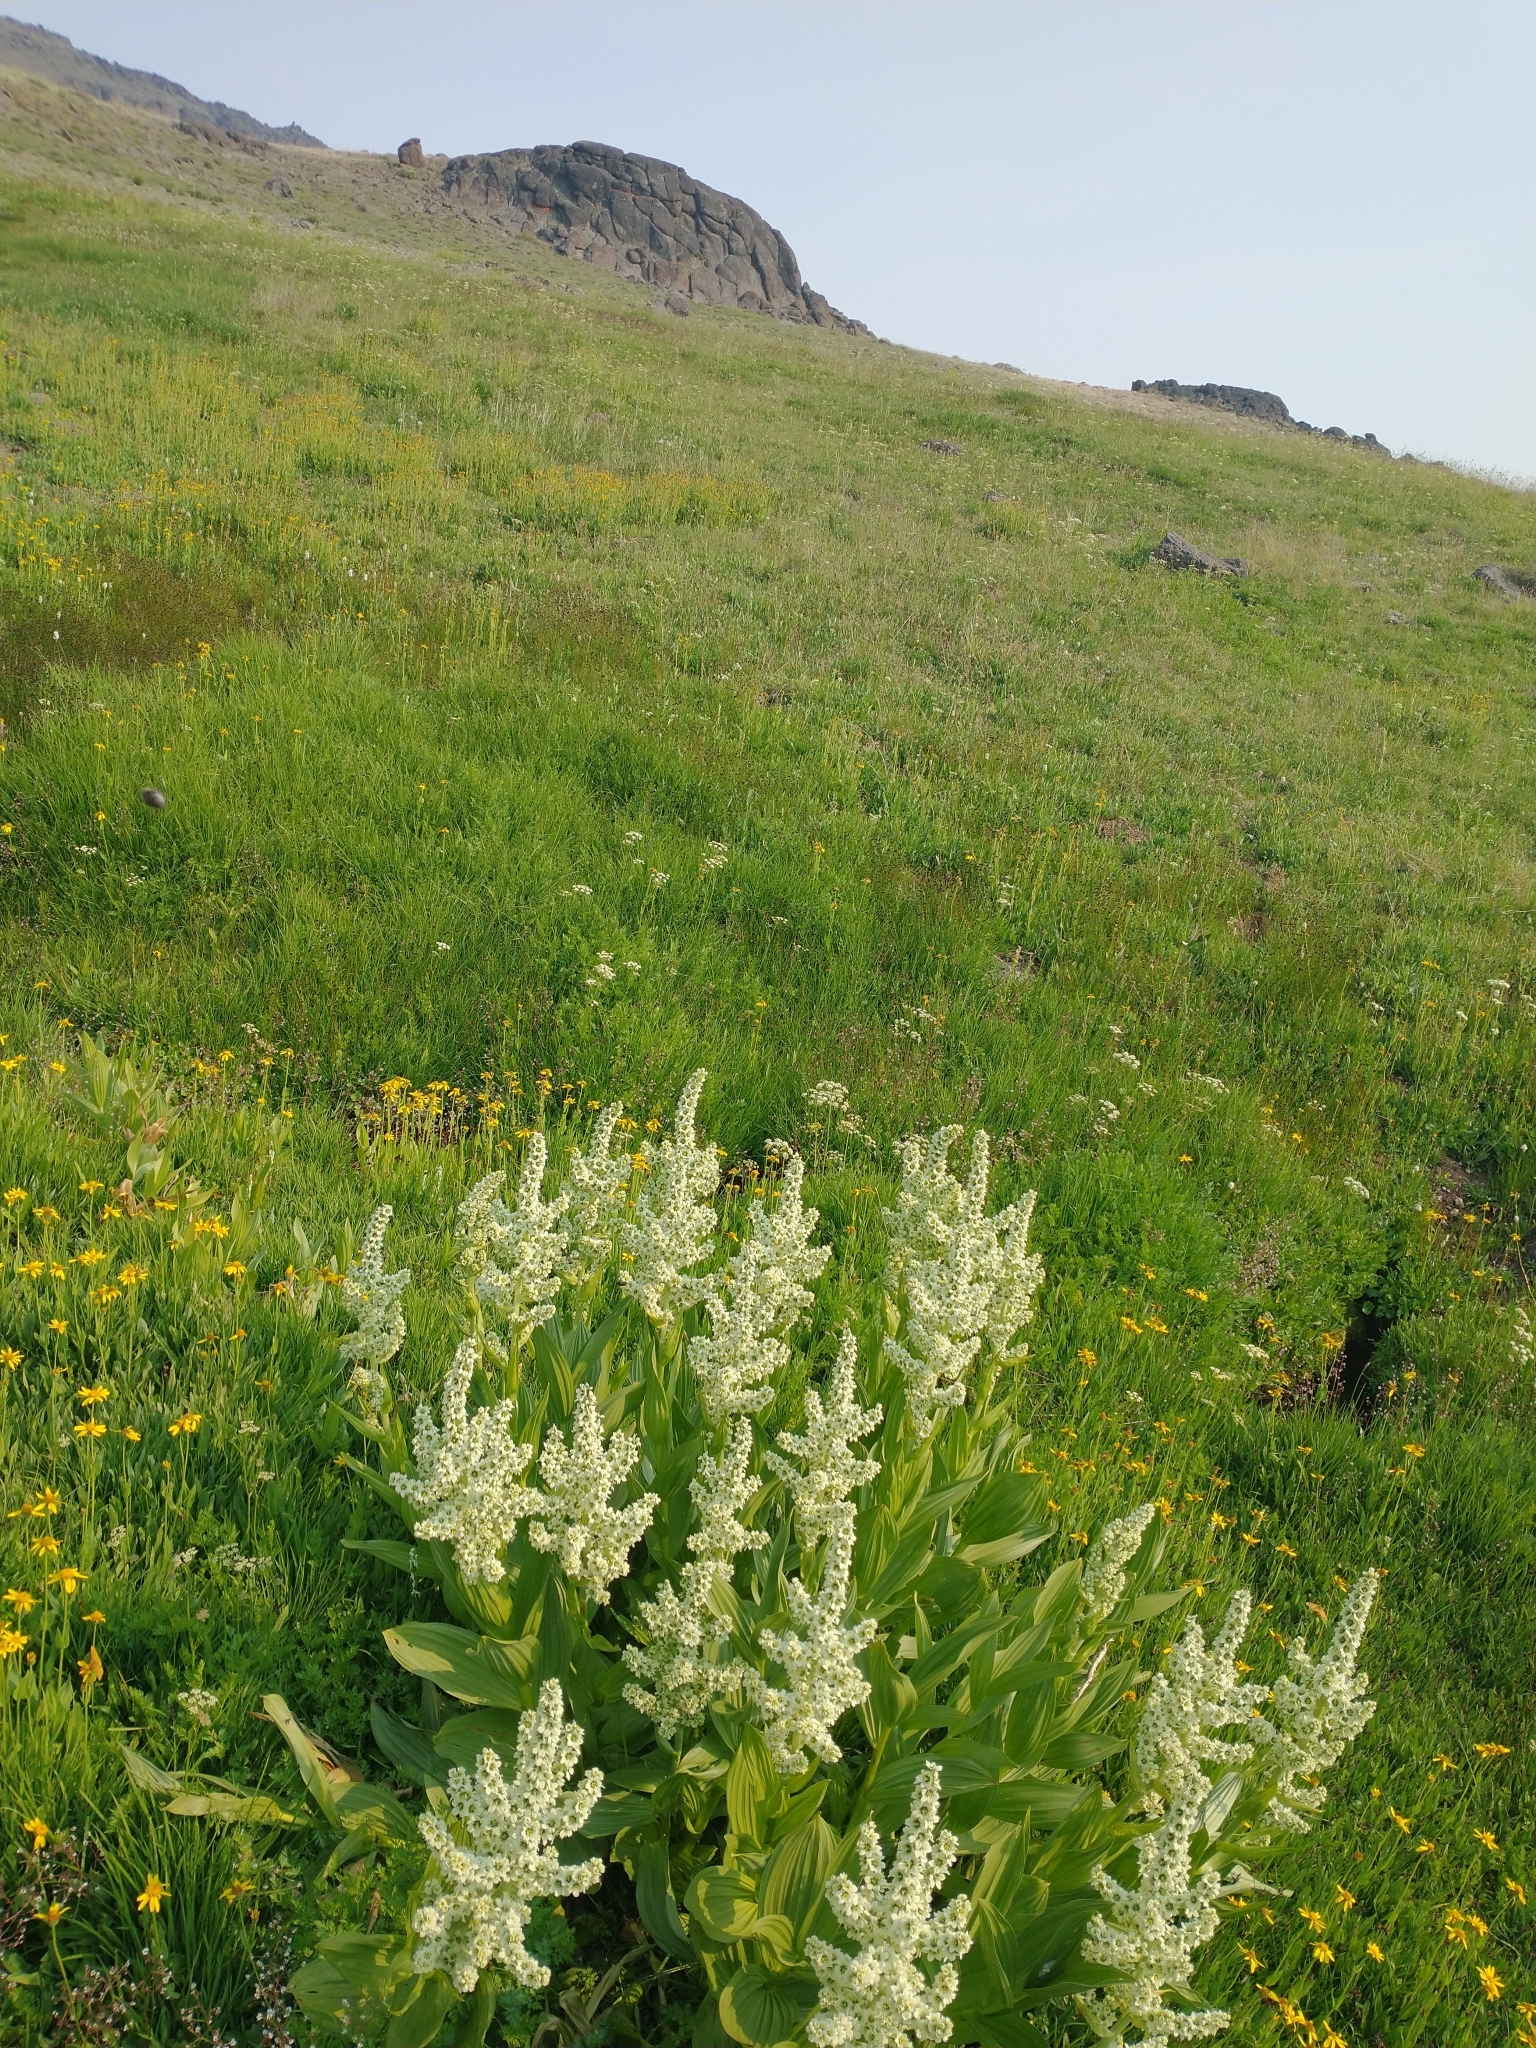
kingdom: Plantae
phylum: Tracheophyta
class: Liliopsida
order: Liliales
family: Melanthiaceae
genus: Veratrum
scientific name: Veratrum californicum
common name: California veratrum
